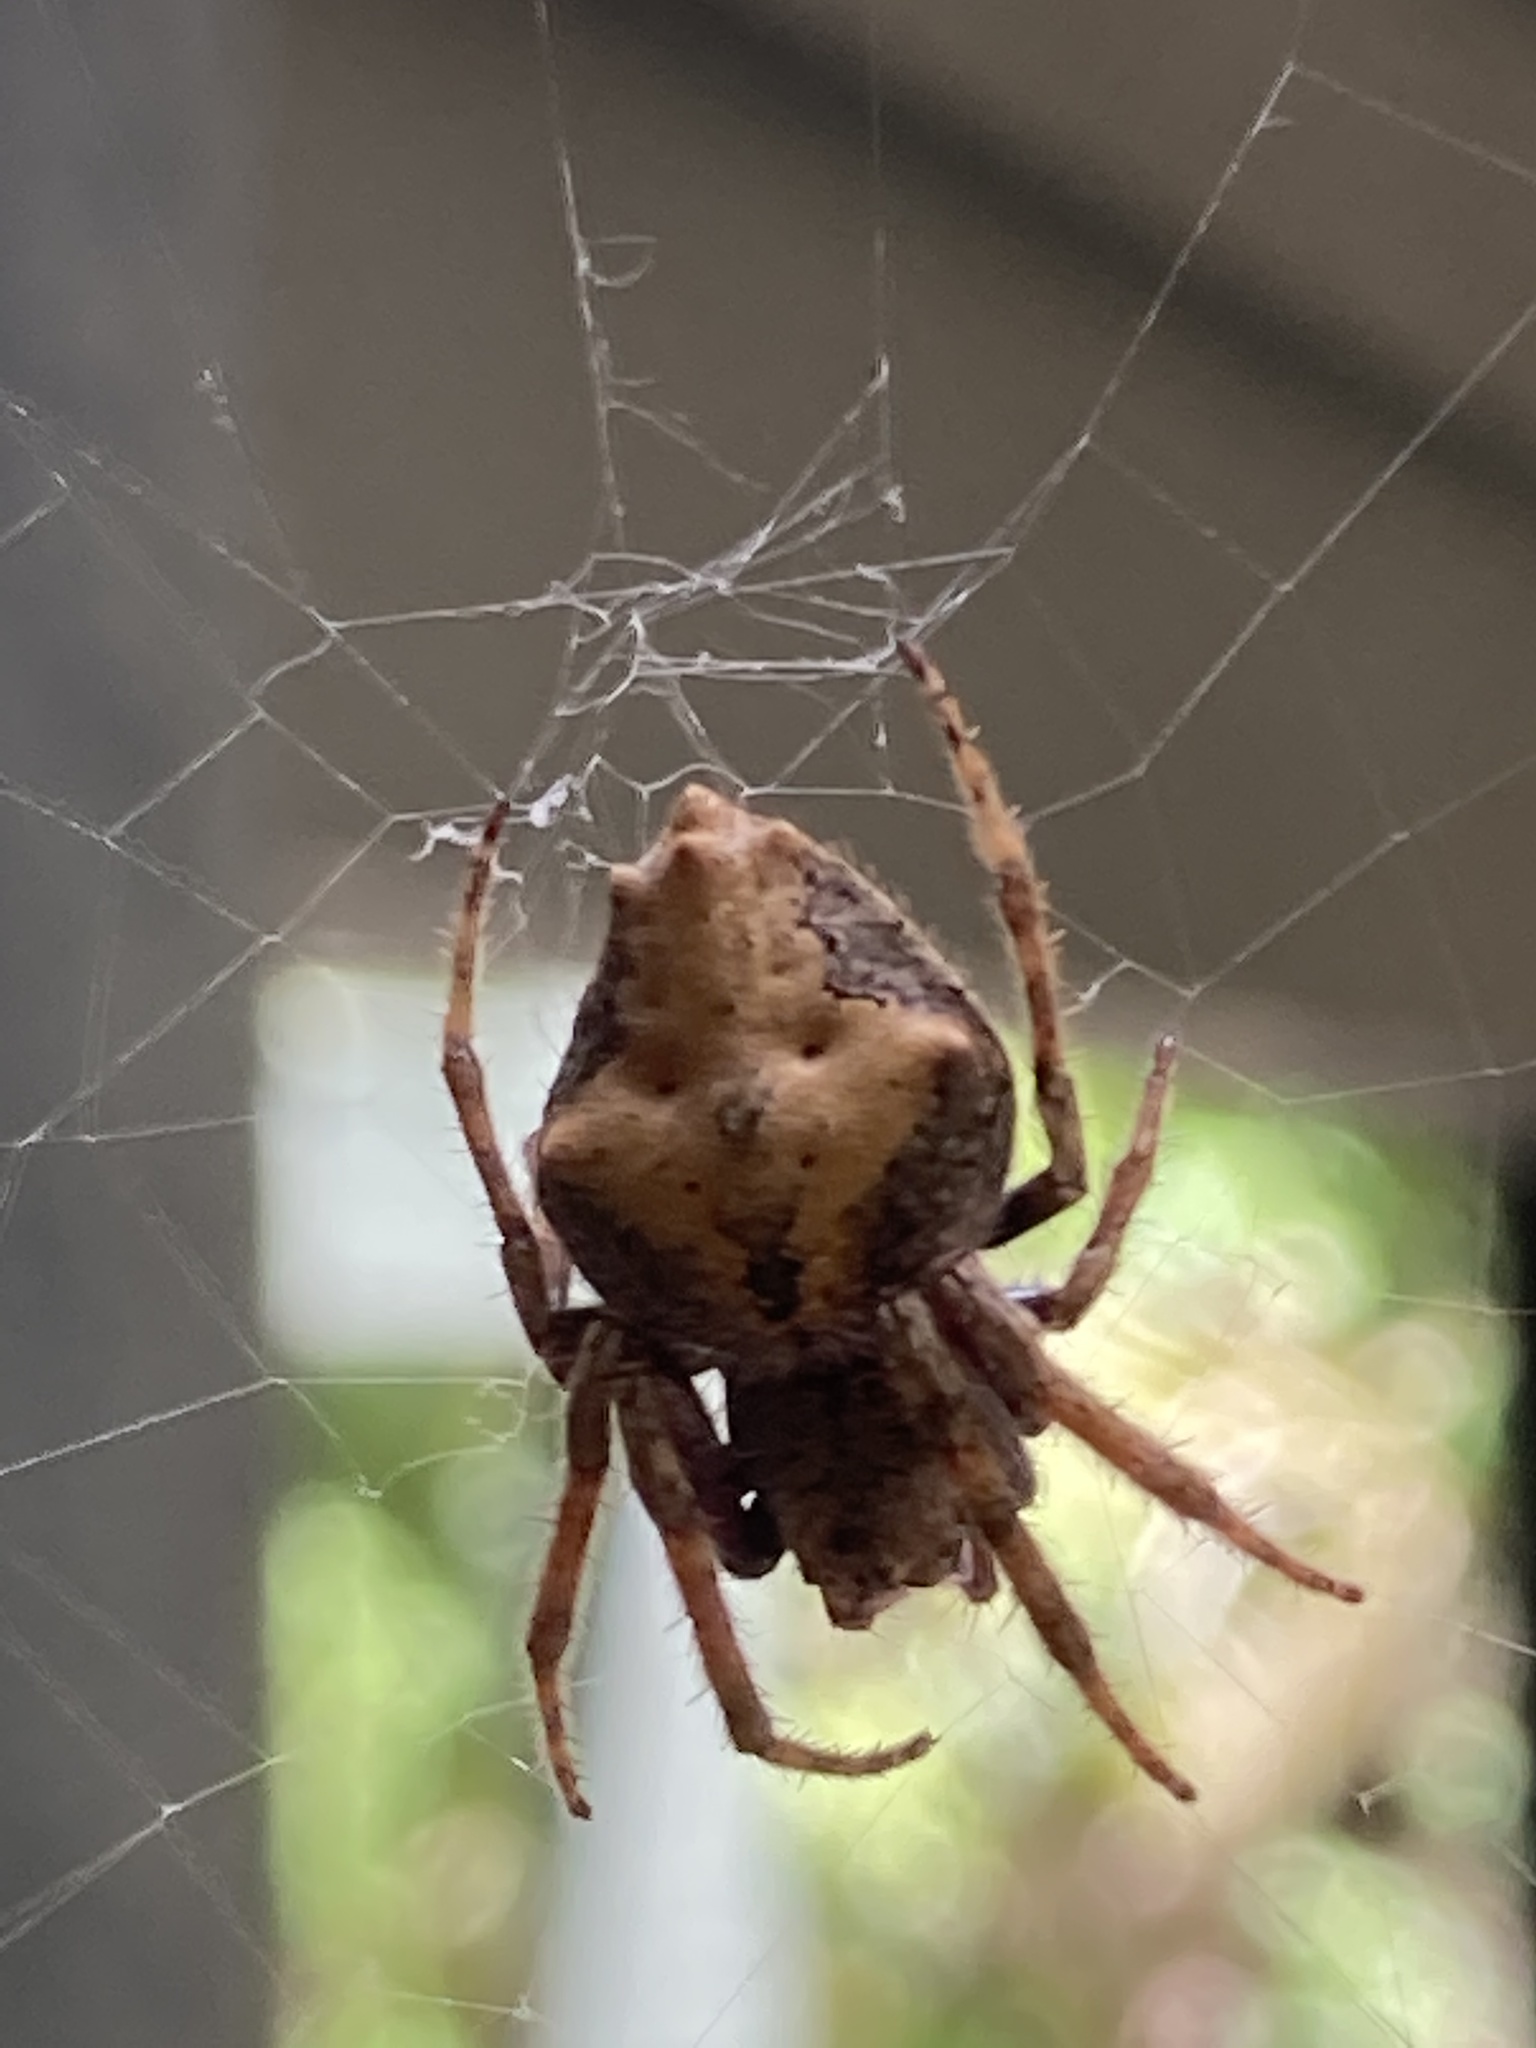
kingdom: Animalia
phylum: Arthropoda
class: Arachnida
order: Araneae
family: Araneidae
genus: Eriophora
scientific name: Eriophora pustulosa
